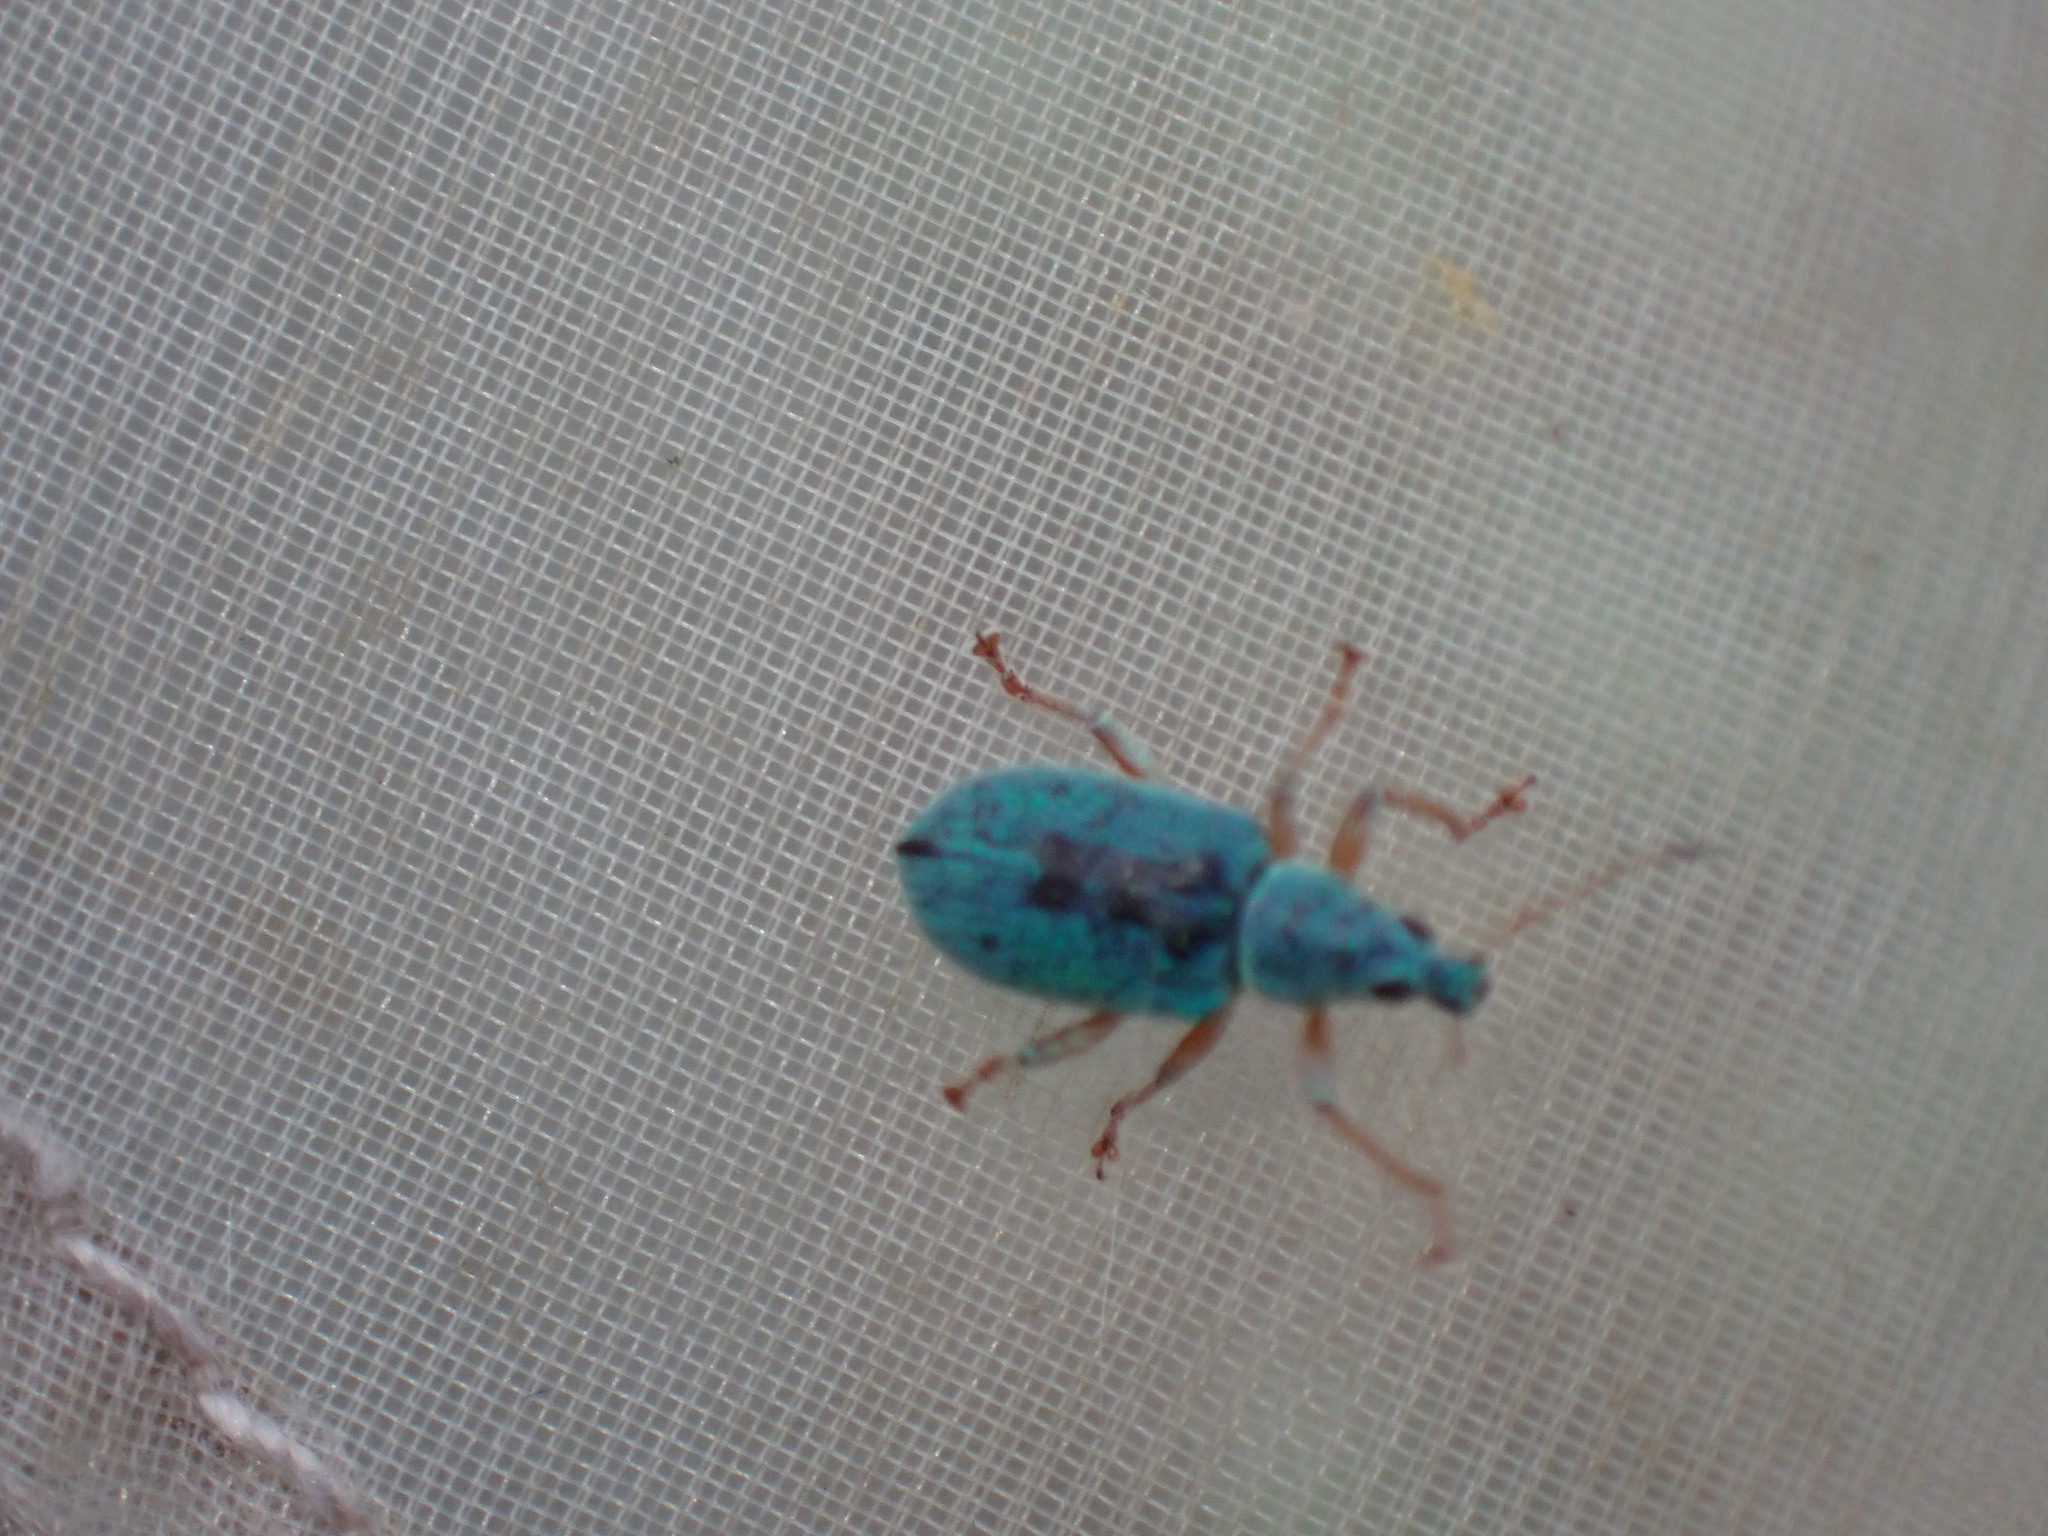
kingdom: Animalia
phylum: Arthropoda
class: Insecta
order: Coleoptera
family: Curculionidae
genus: Polydrusus
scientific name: Polydrusus formosus
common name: Weevil
